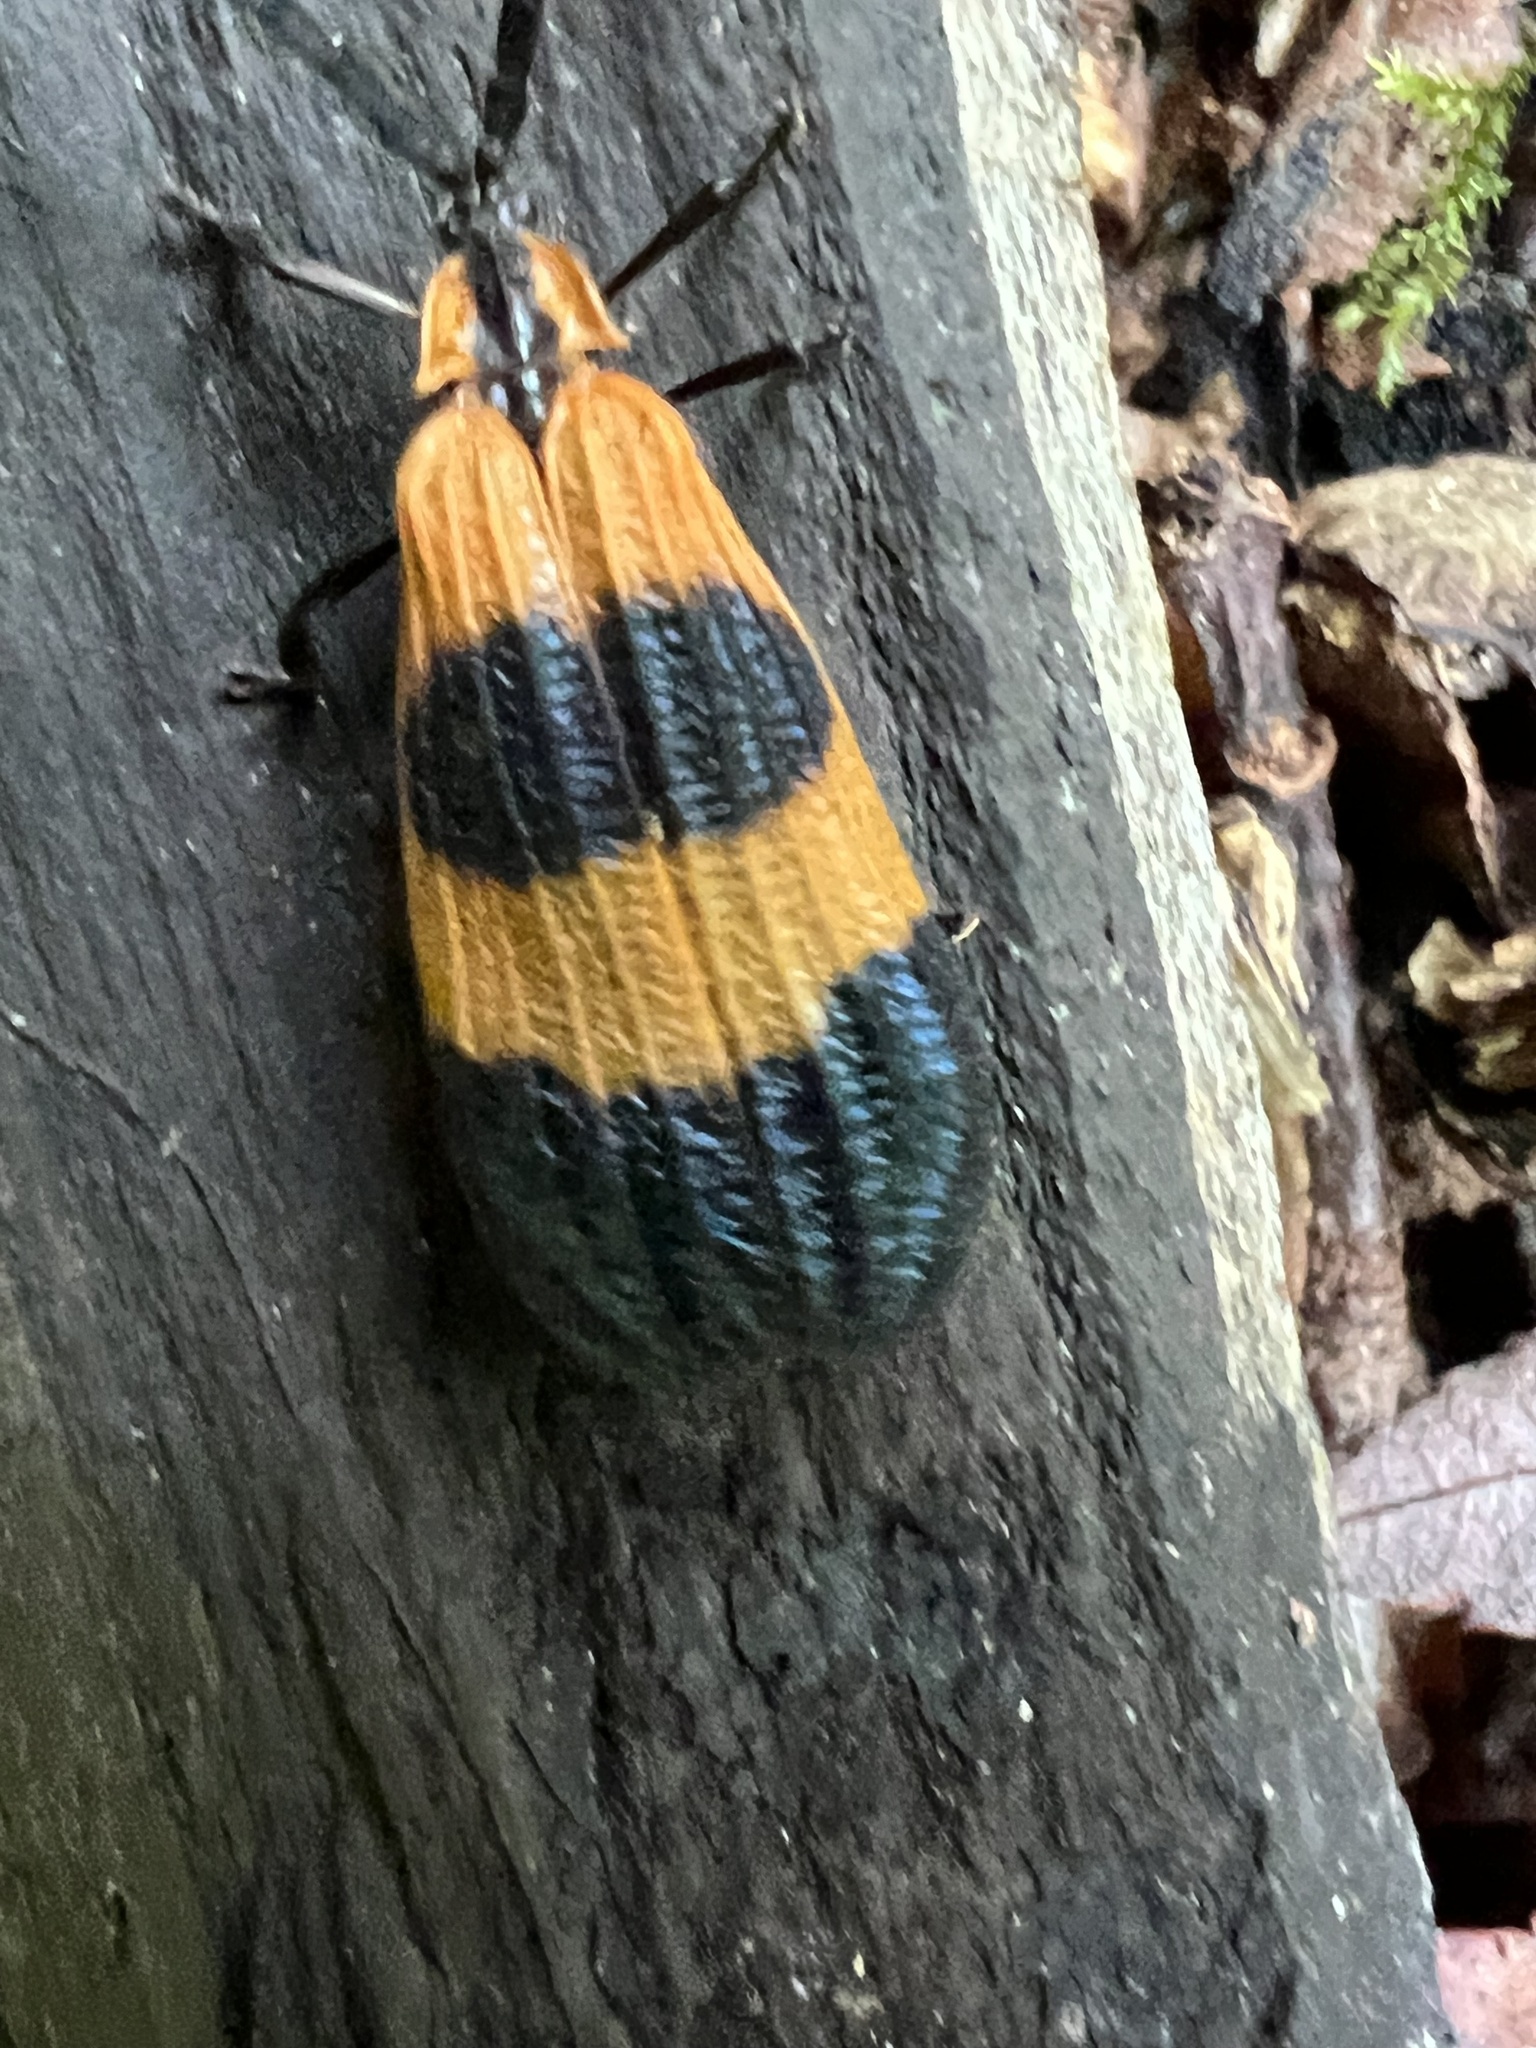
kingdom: Animalia
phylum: Arthropoda
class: Insecta
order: Coleoptera
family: Lycidae
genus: Calopteron
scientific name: Calopteron terminale
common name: End band net-winged beetle
